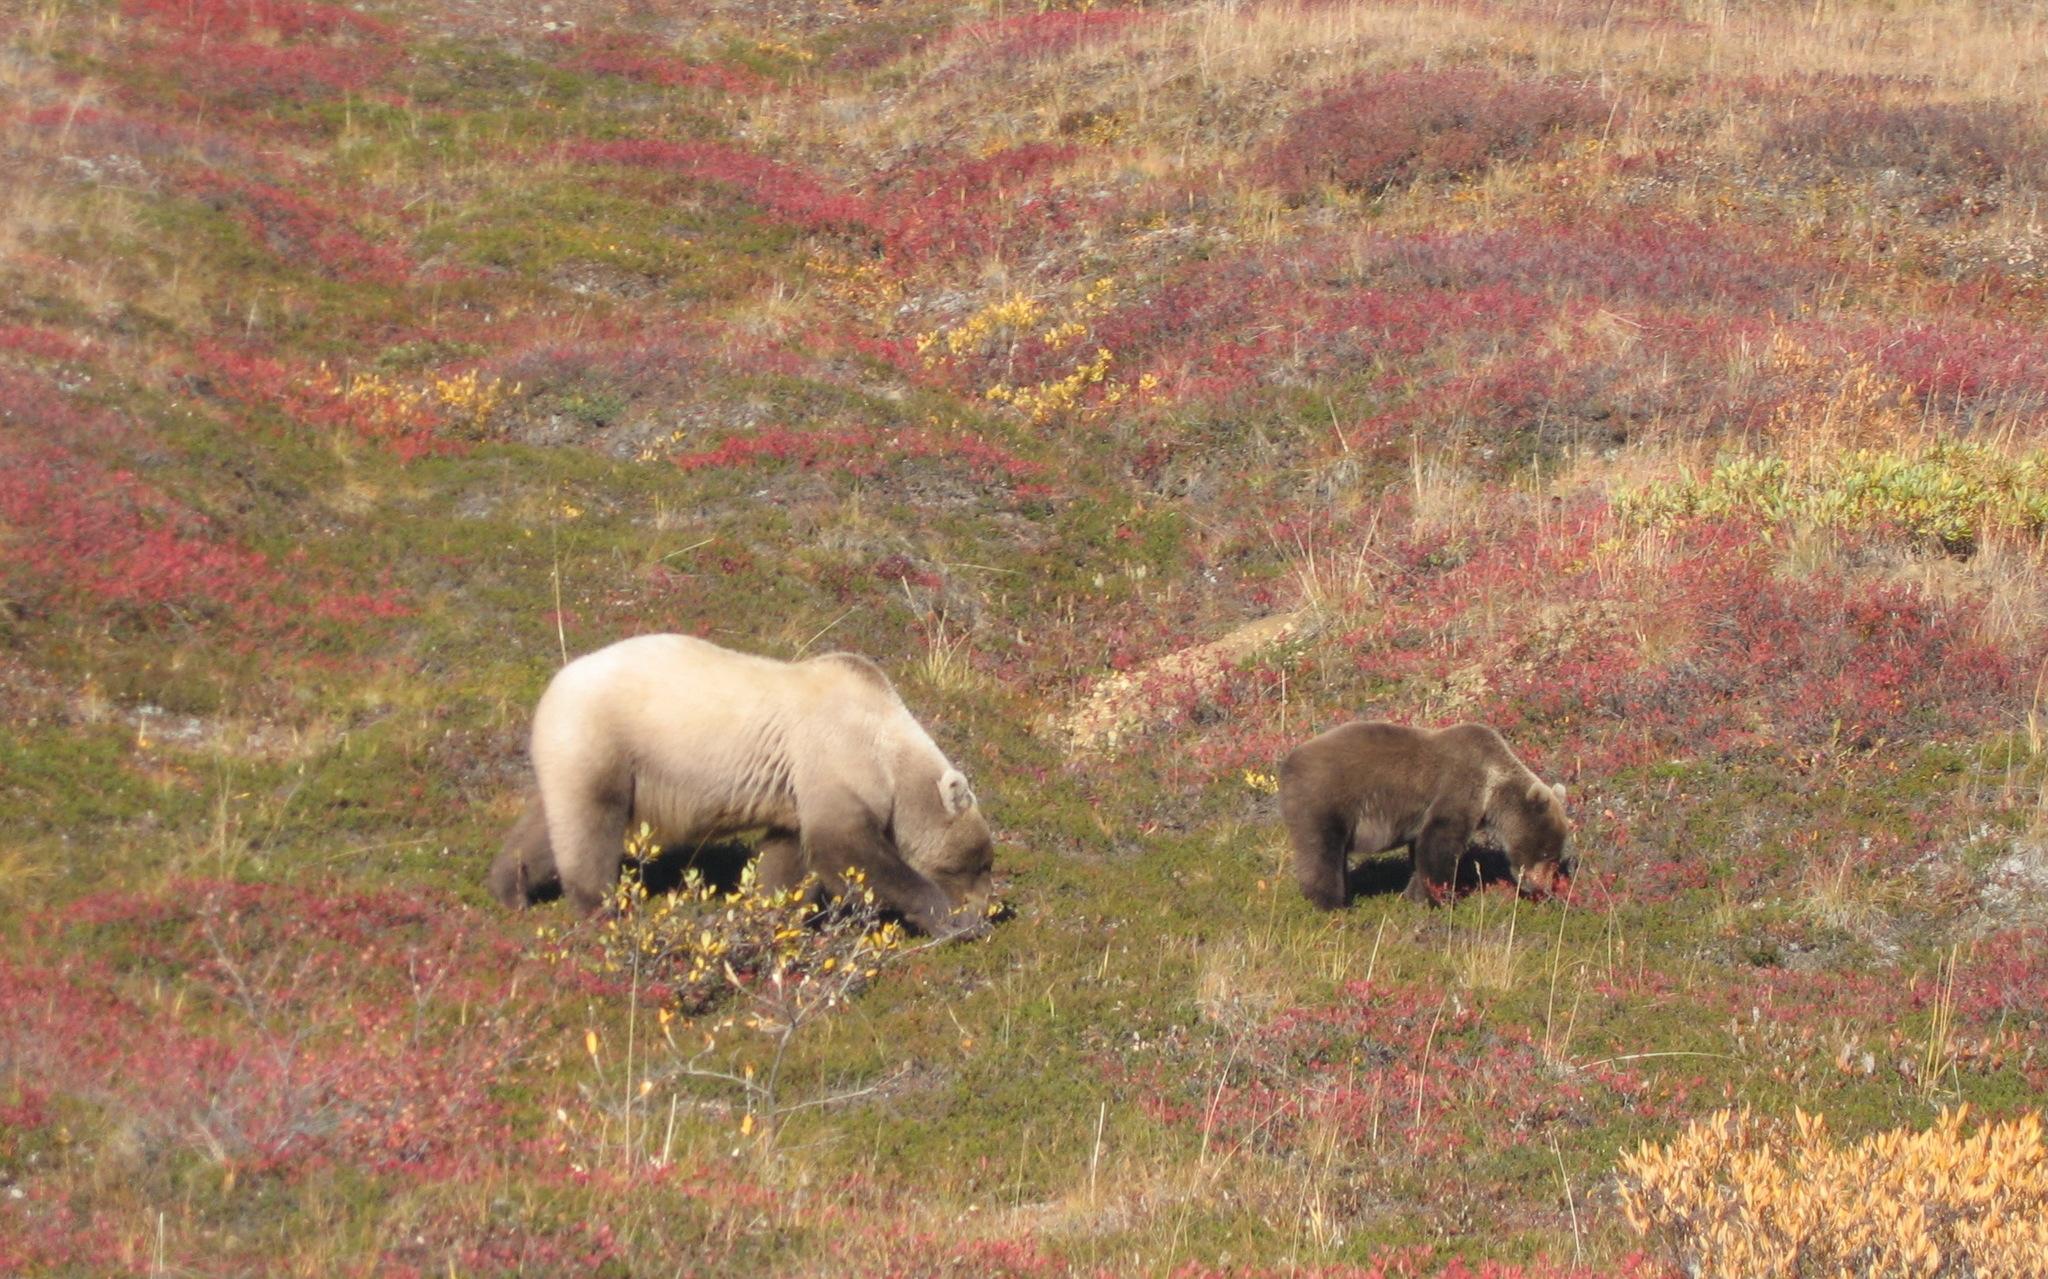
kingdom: Animalia
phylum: Chordata
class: Mammalia
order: Carnivora
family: Ursidae
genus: Ursus
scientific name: Ursus arctos
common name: Brown bear
